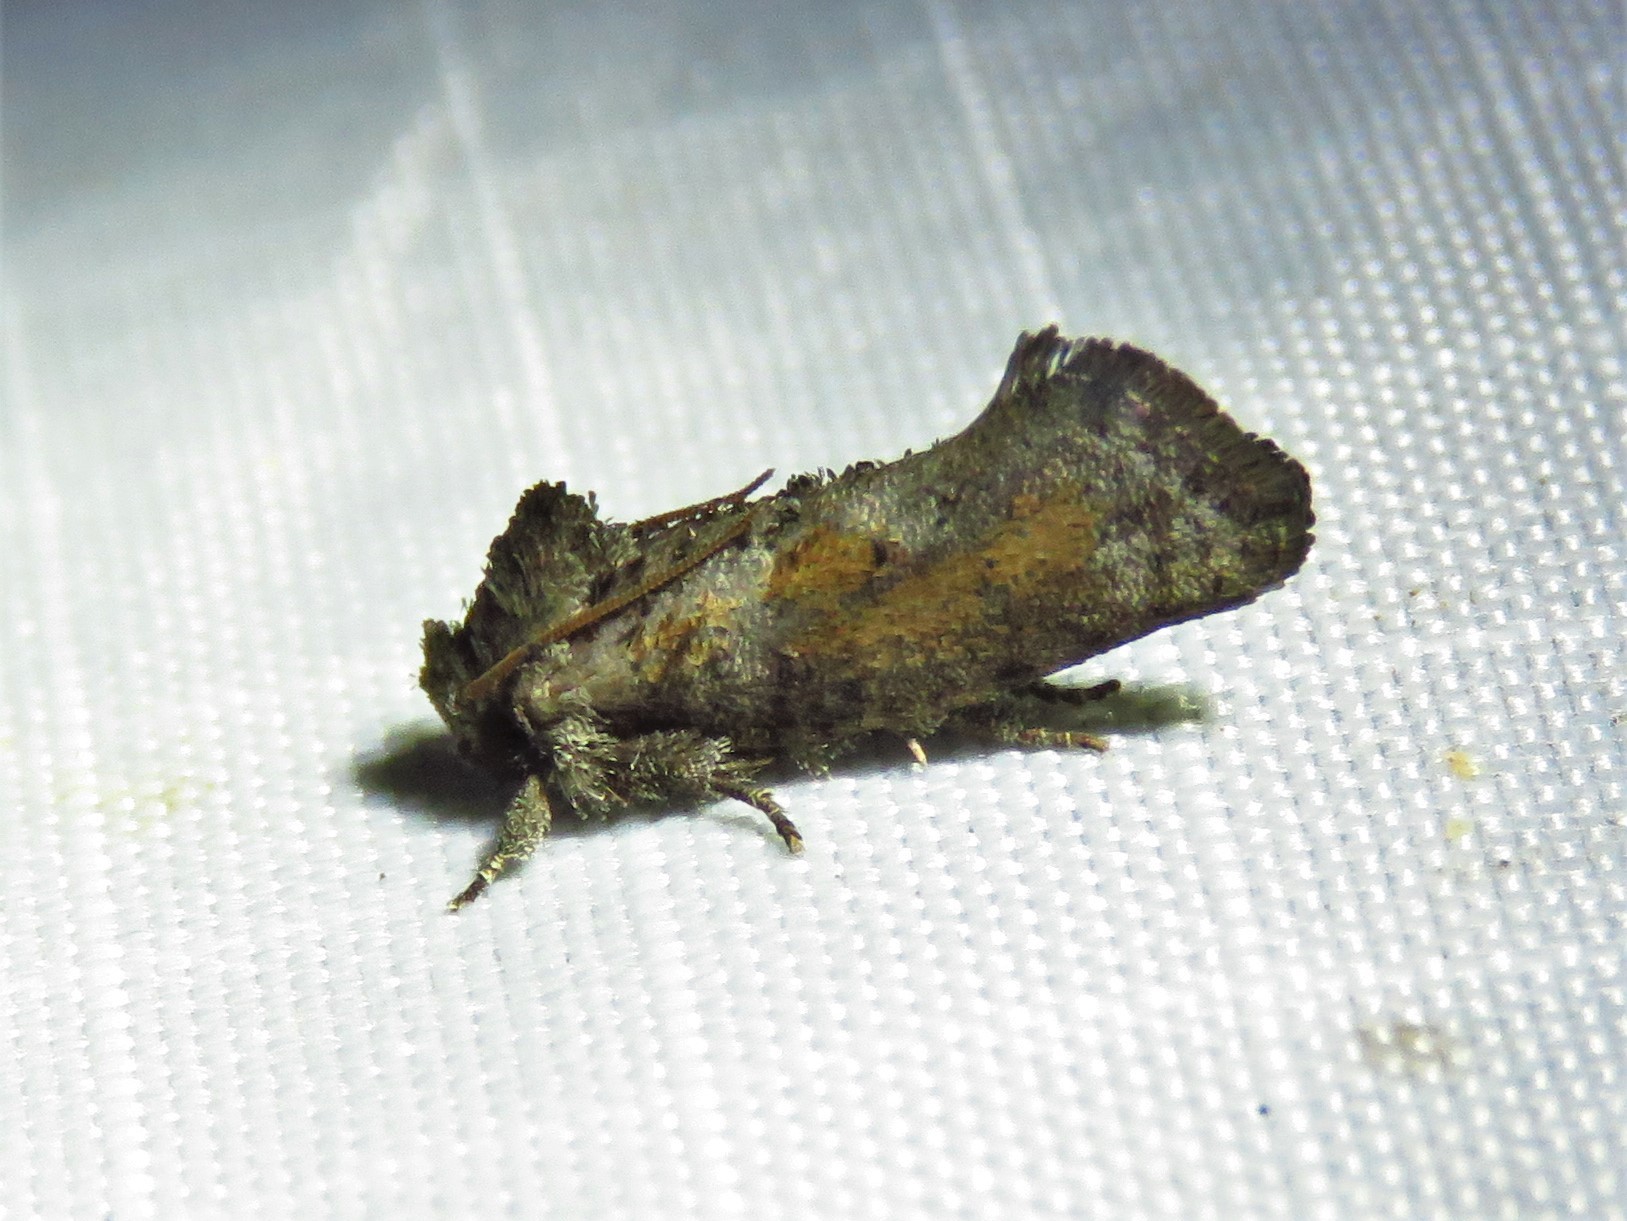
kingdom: Animalia
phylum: Arthropoda
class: Insecta
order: Lepidoptera
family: Tineidae
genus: Acrolophus
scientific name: Acrolophus piger
